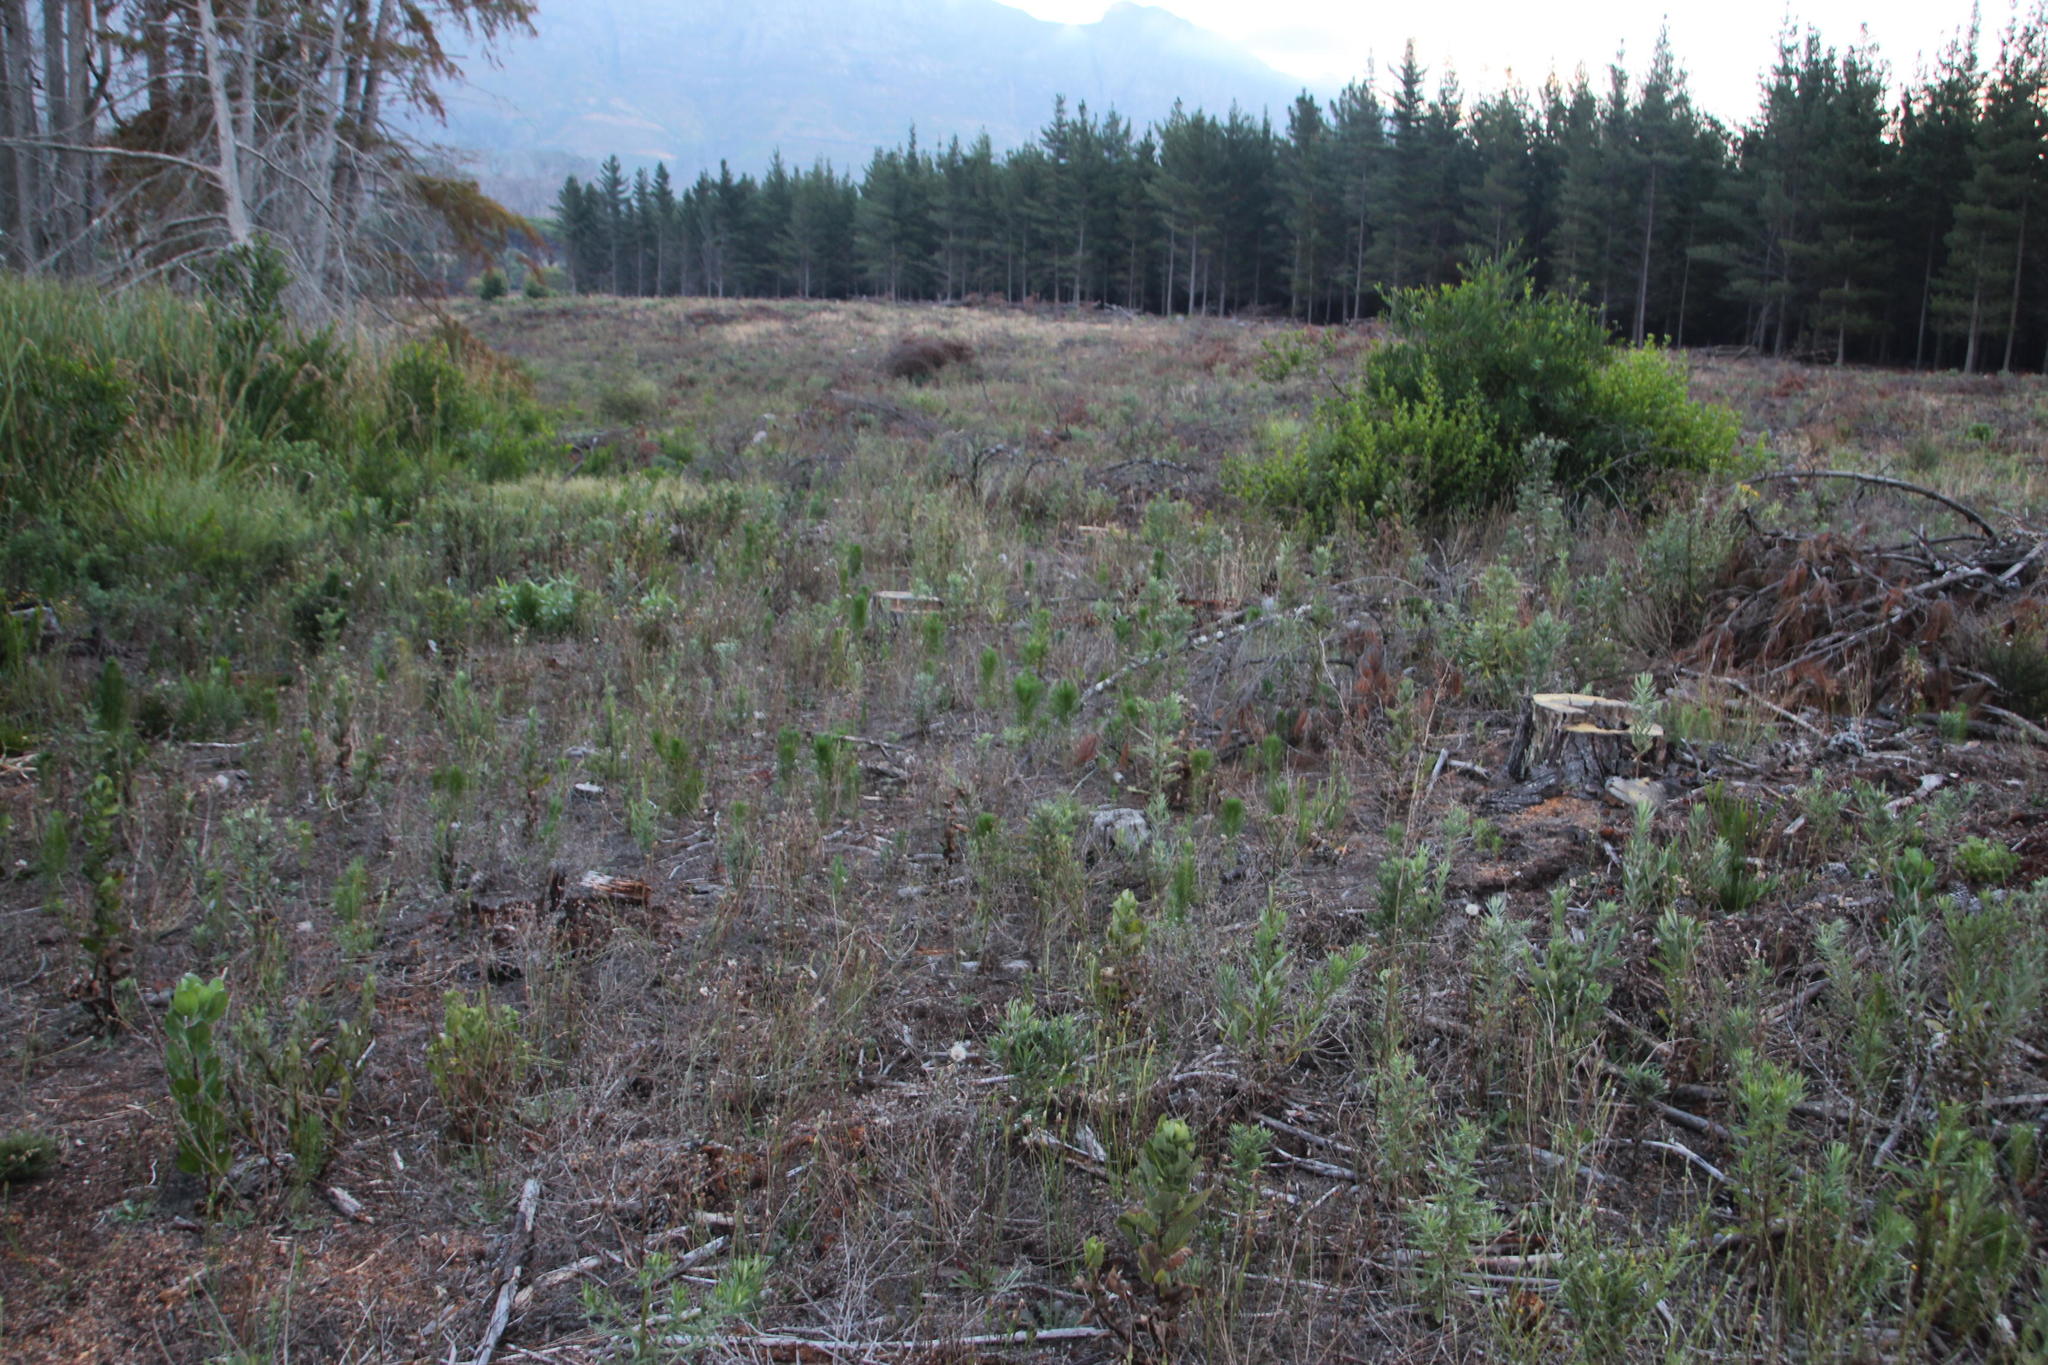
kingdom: Plantae
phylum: Tracheophyta
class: Pinopsida
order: Pinales
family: Pinaceae
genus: Pinus
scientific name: Pinus radiata
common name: Monterey pine
